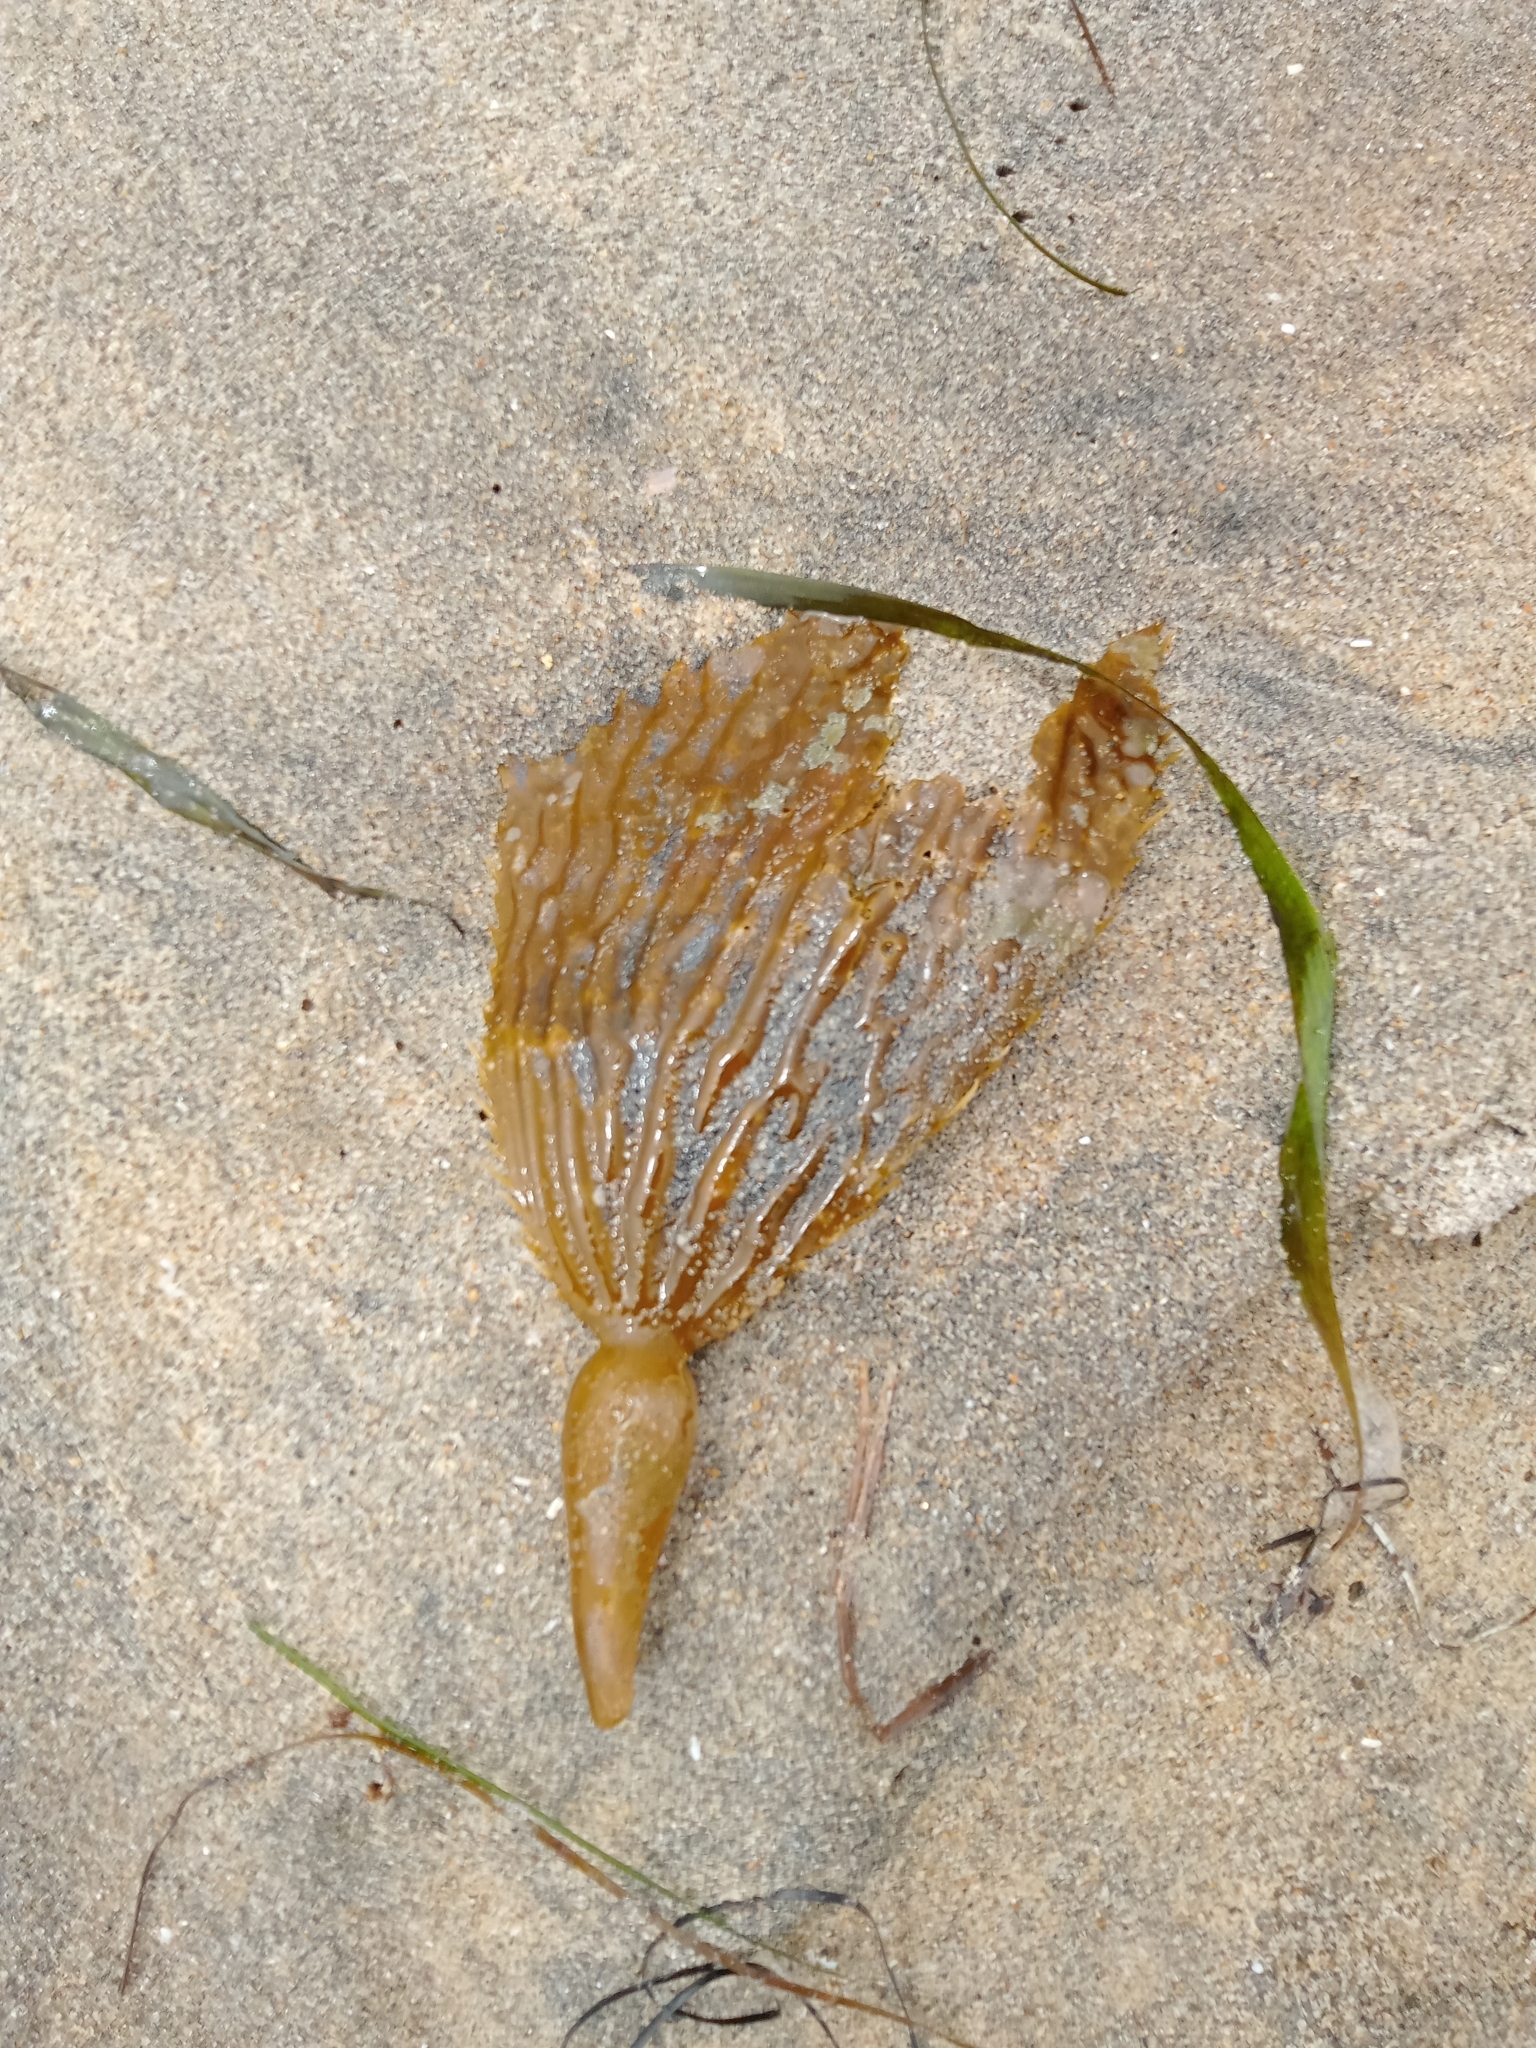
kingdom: Chromista
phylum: Ochrophyta
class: Phaeophyceae
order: Laminariales
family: Laminariaceae
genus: Macrocystis
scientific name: Macrocystis pyrifera
